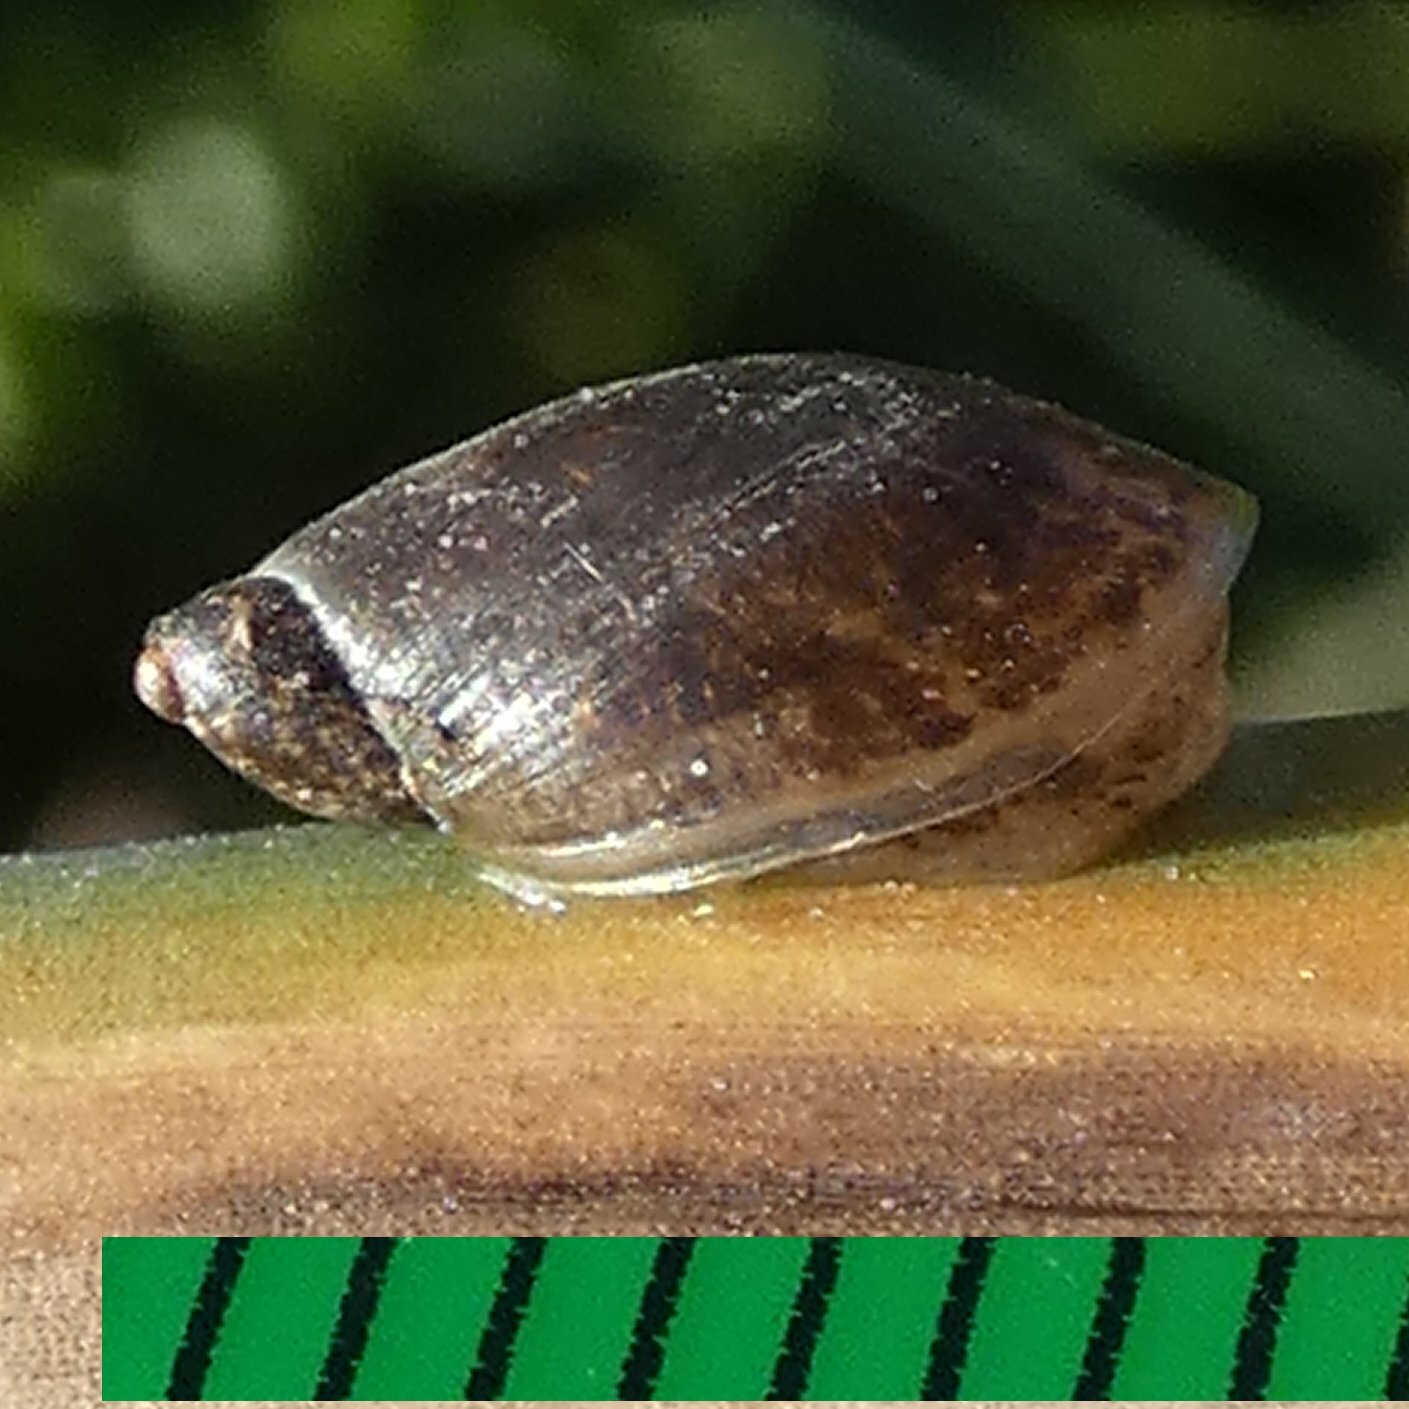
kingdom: Animalia
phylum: Mollusca
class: Gastropoda
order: Stylommatophora
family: Succineidae
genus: Oxyloma
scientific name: Oxyloma elegans
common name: Pfeiffer's amber snail
